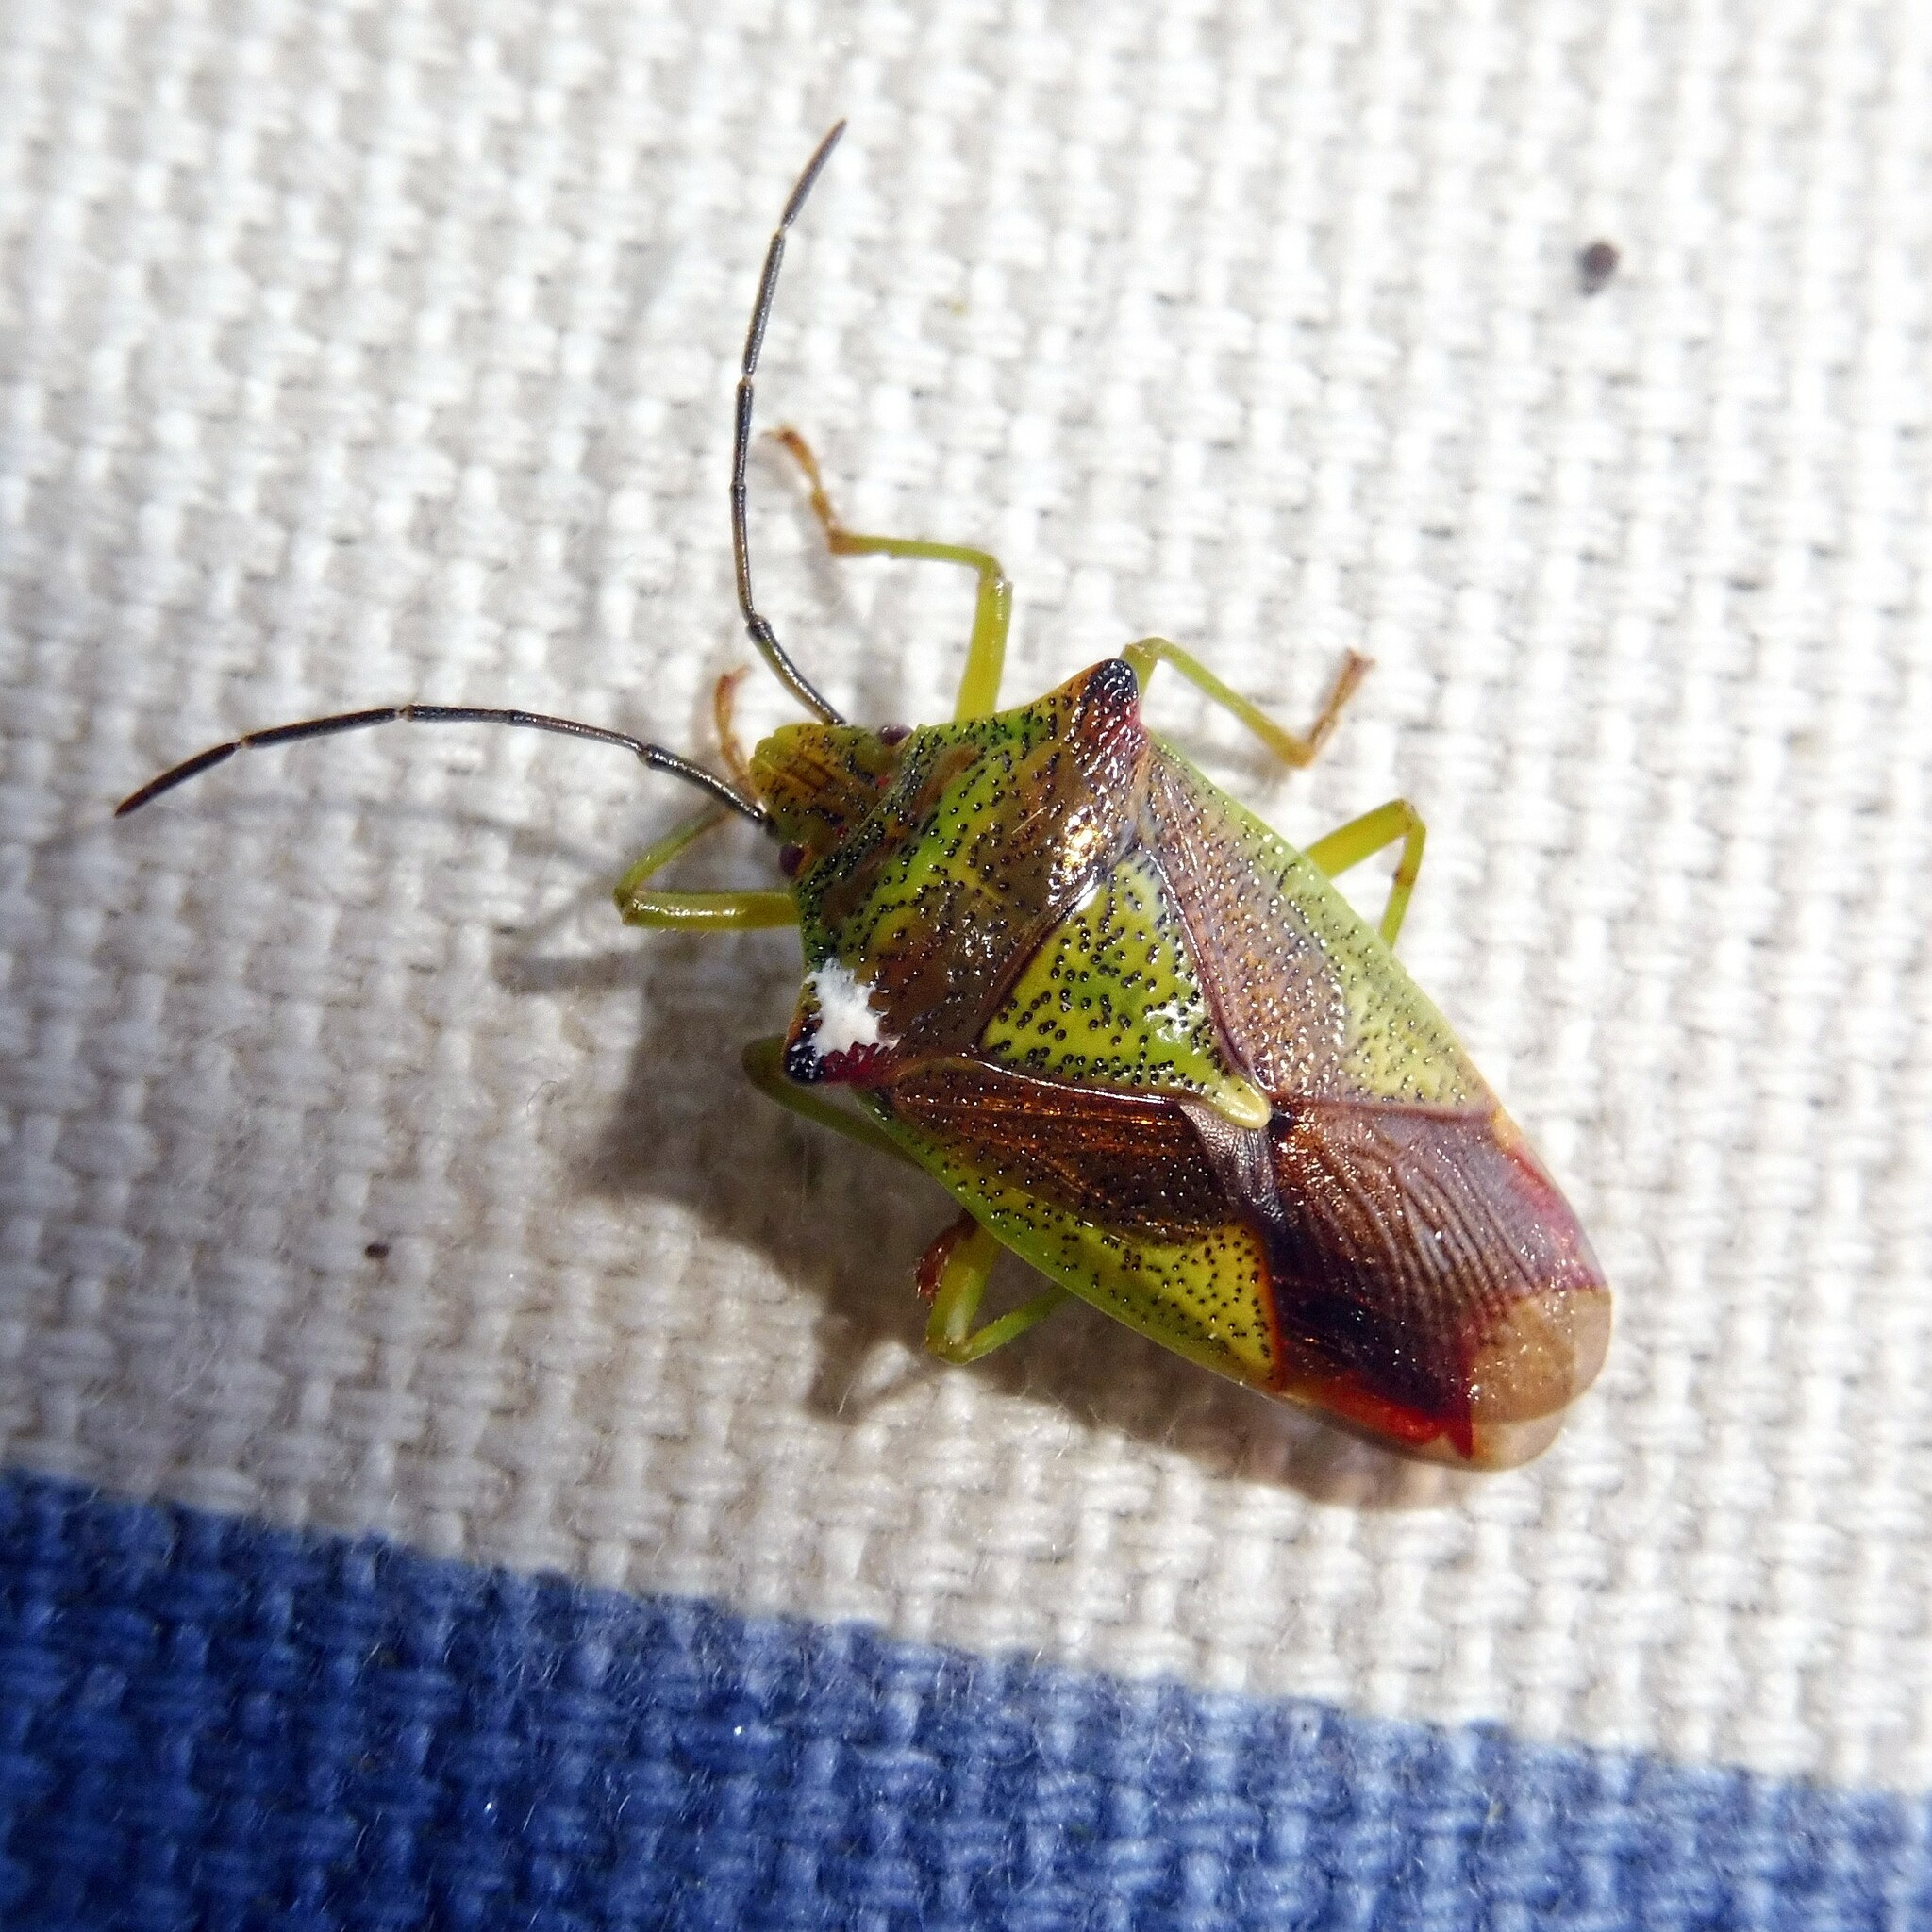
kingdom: Animalia
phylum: Arthropoda
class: Insecta
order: Hemiptera
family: Acanthosomatidae
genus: Acanthosoma
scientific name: Acanthosoma haemorrhoidale
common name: Hawthorn shieldbug
